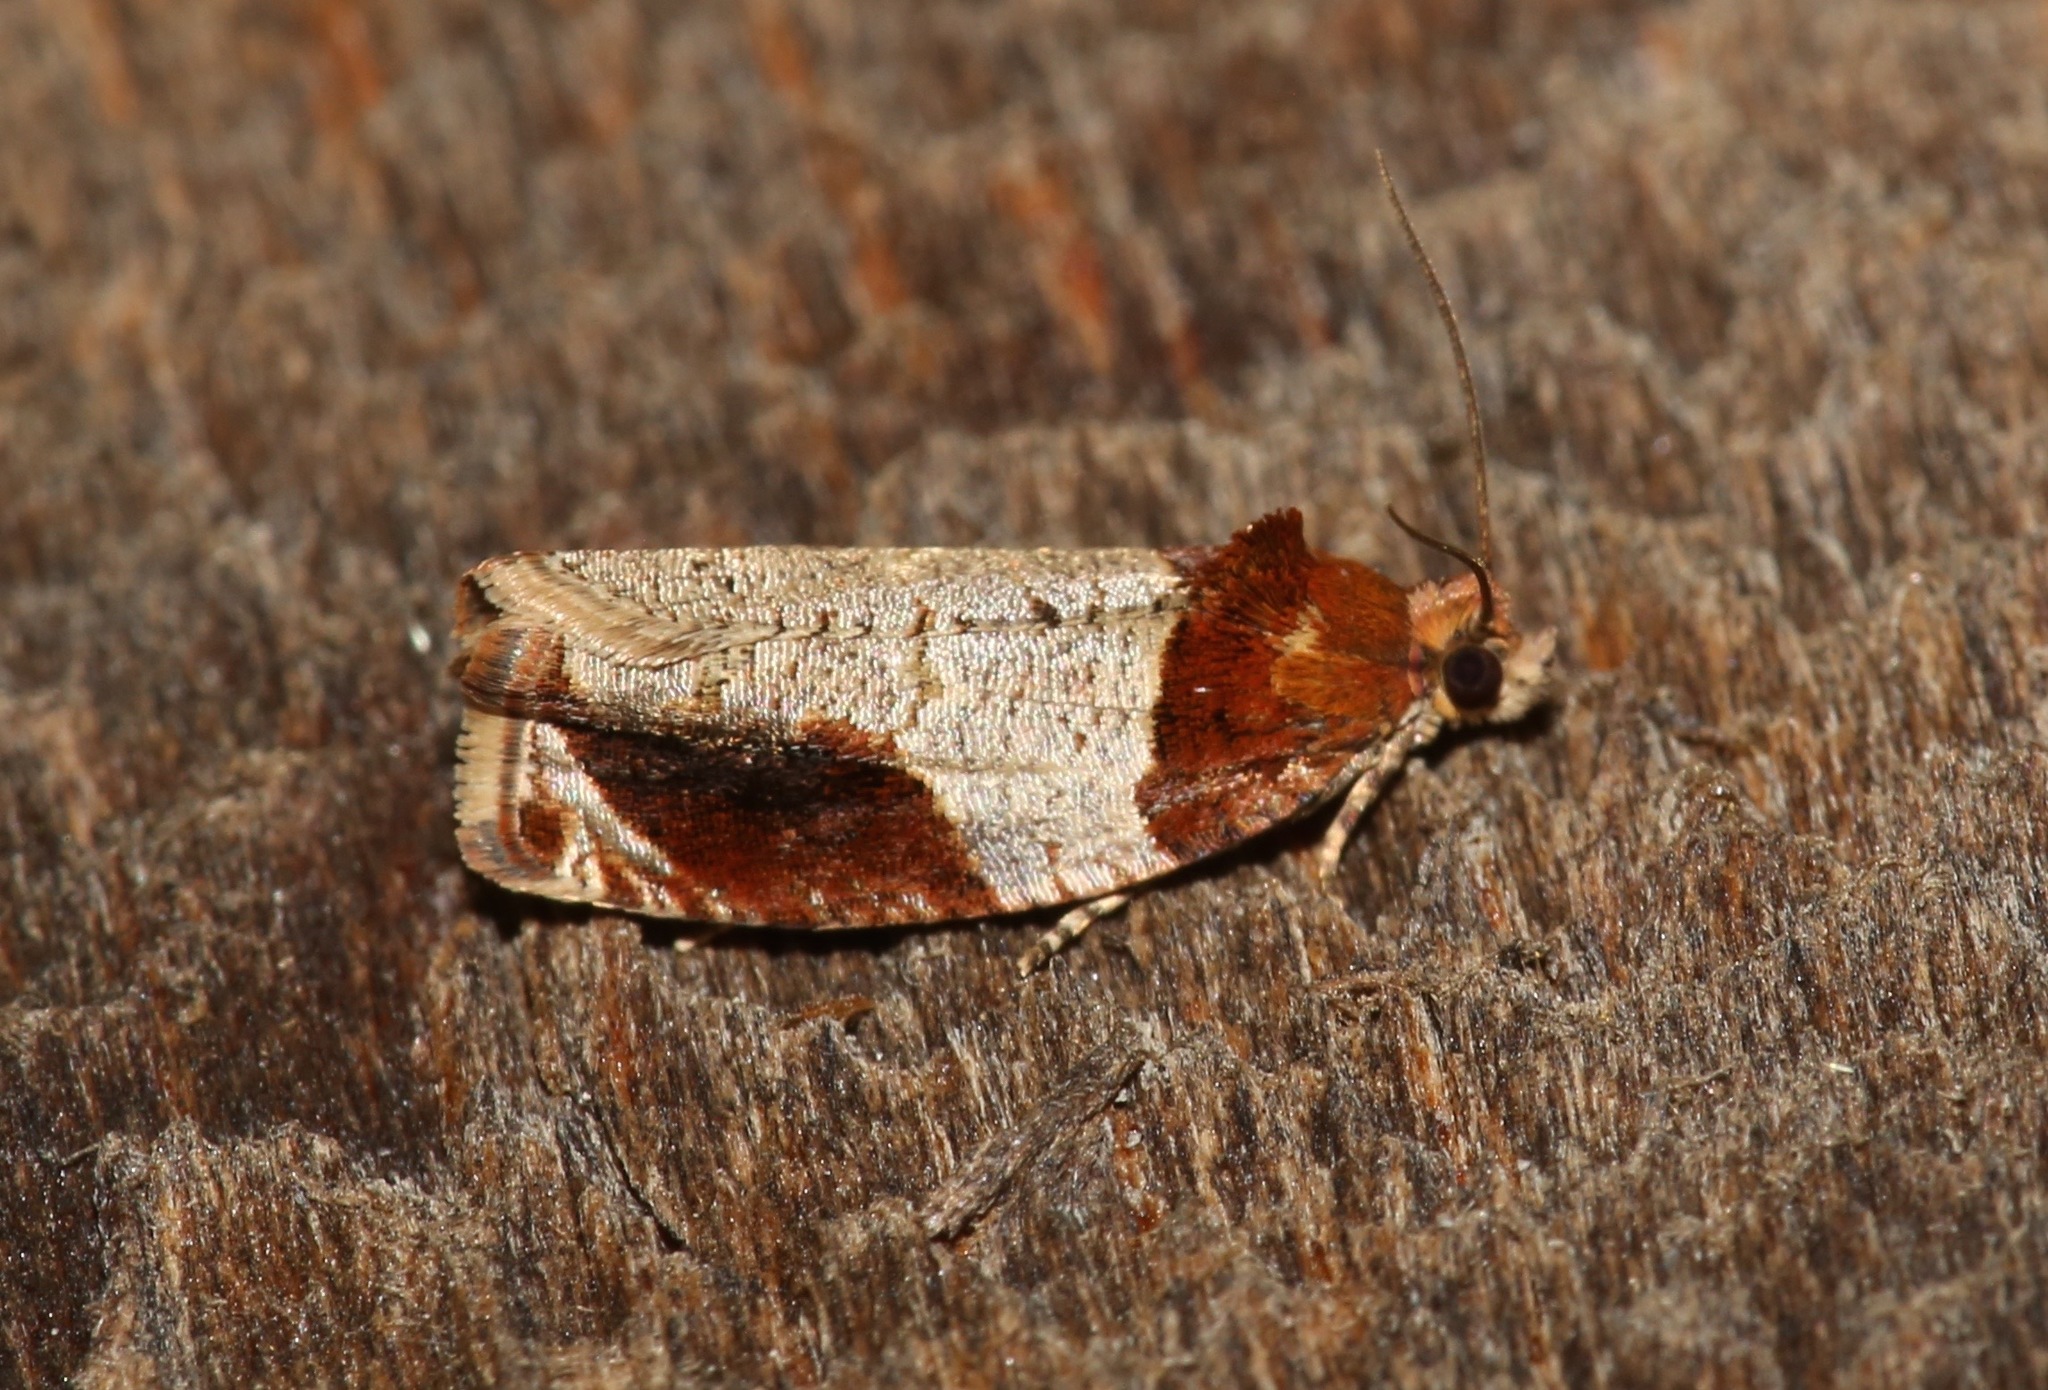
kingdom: Animalia
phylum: Arthropoda
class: Insecta
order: Lepidoptera
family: Tortricidae
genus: Olethreutes
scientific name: Olethreutes ferriferana
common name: Hydrangea leaftier moth
